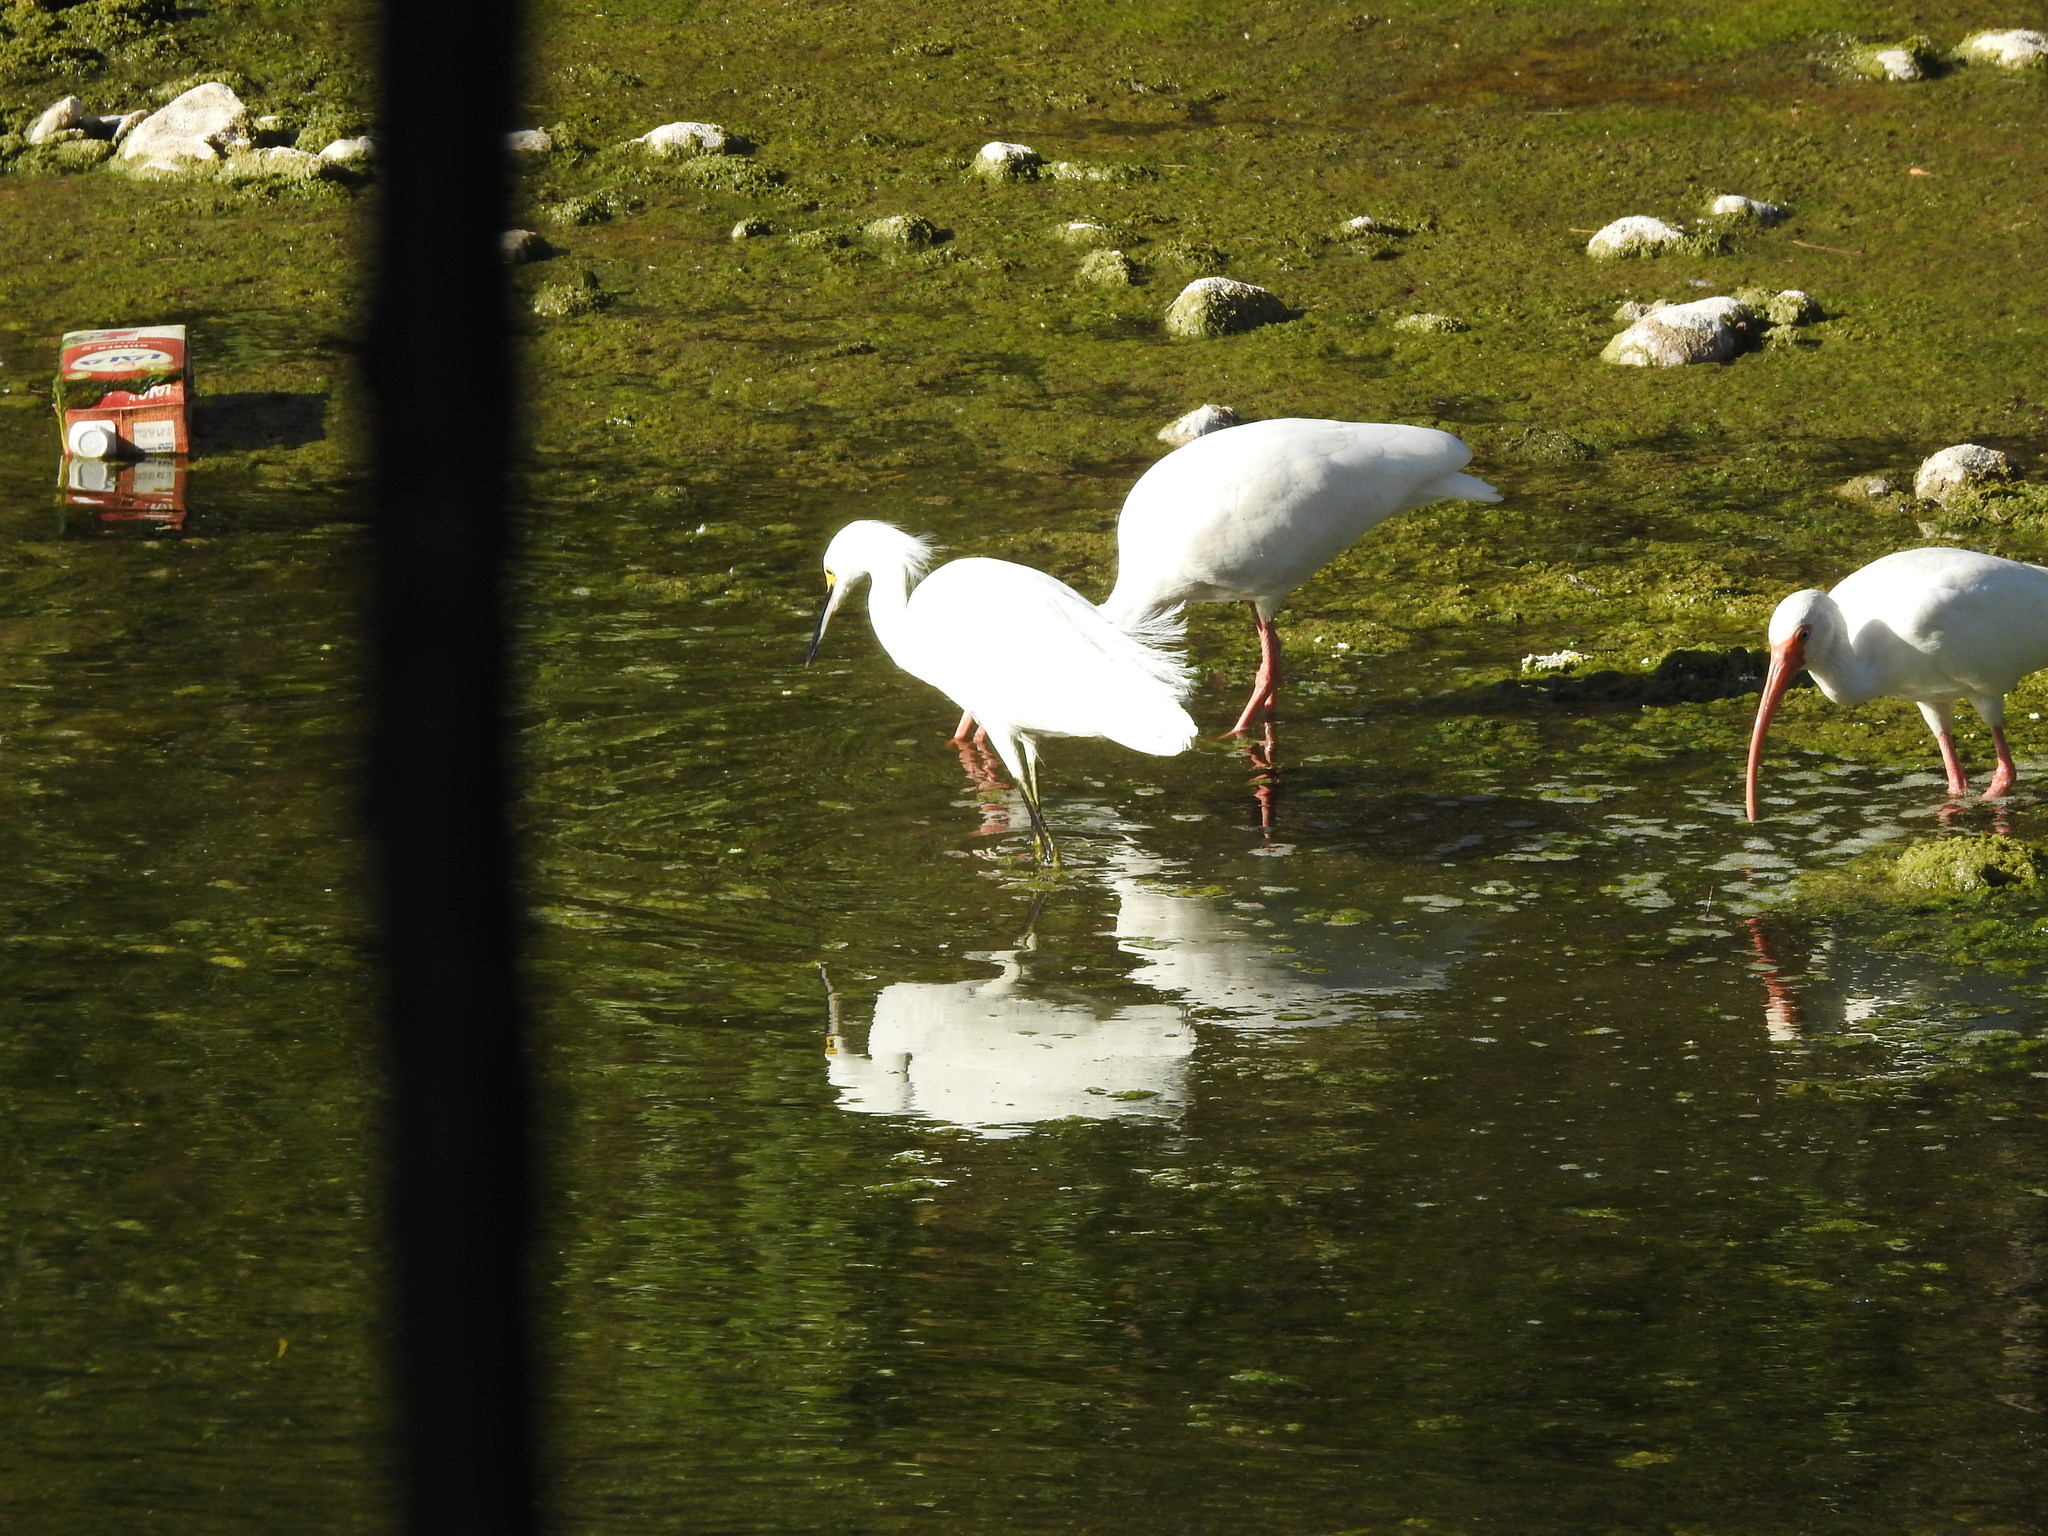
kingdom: Animalia
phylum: Chordata
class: Aves
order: Pelecaniformes
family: Threskiornithidae
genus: Eudocimus
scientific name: Eudocimus albus
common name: White ibis
